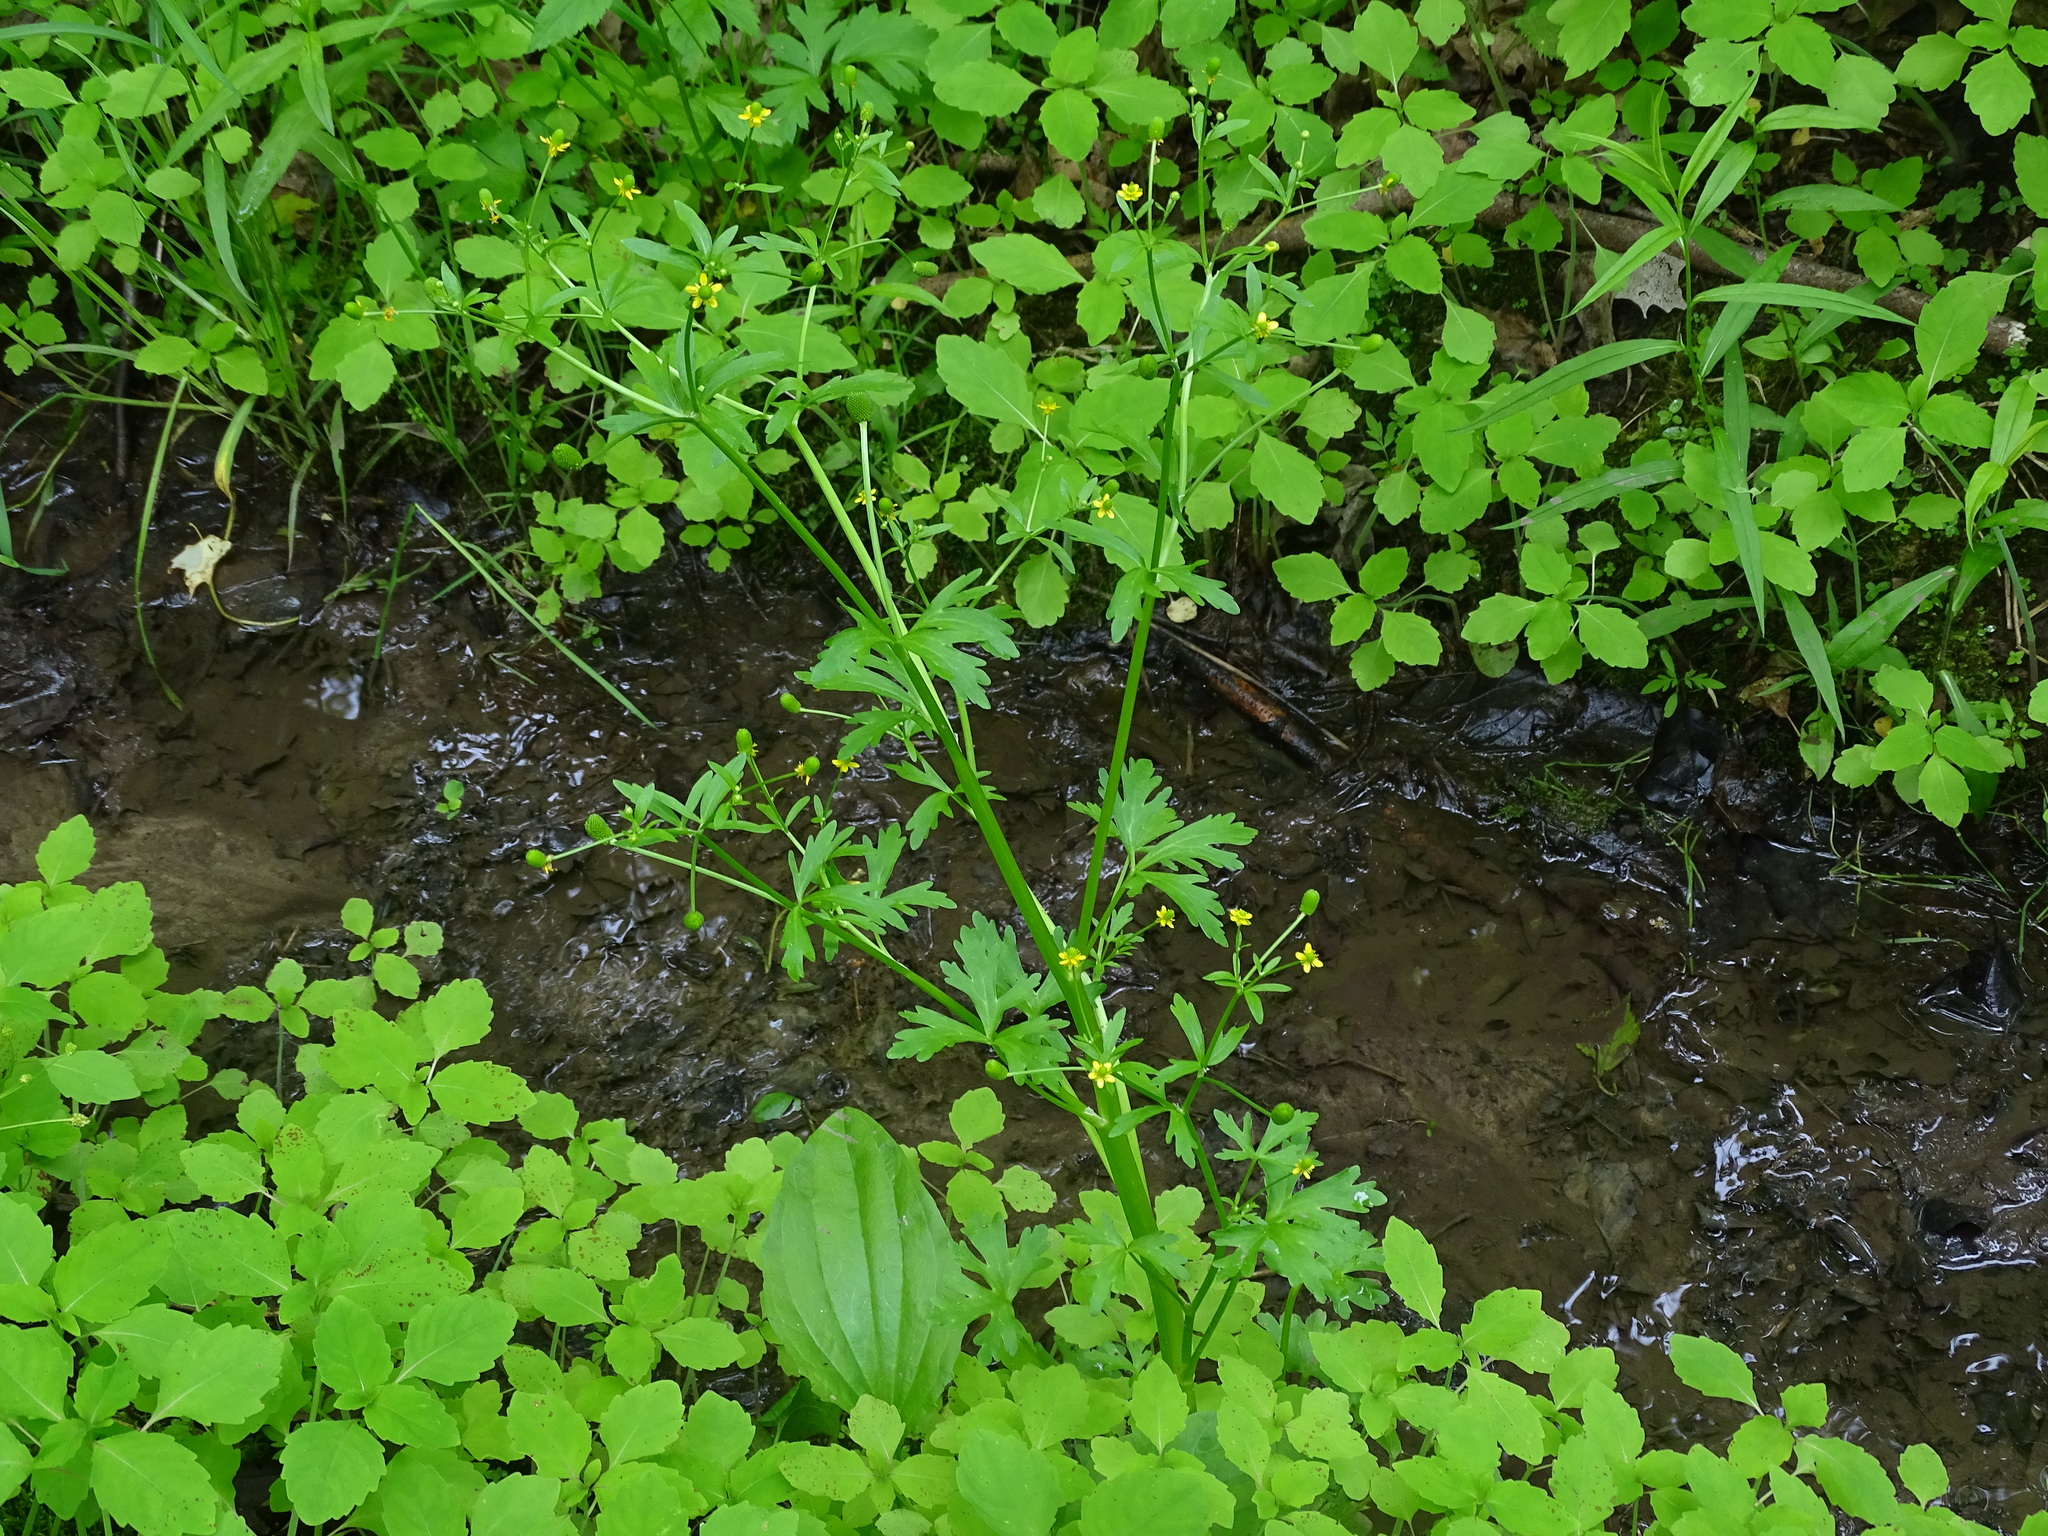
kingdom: Plantae
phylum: Tracheophyta
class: Magnoliopsida
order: Ranunculales
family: Ranunculaceae
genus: Ranunculus
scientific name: Ranunculus sceleratus
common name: Celery-leaved buttercup
